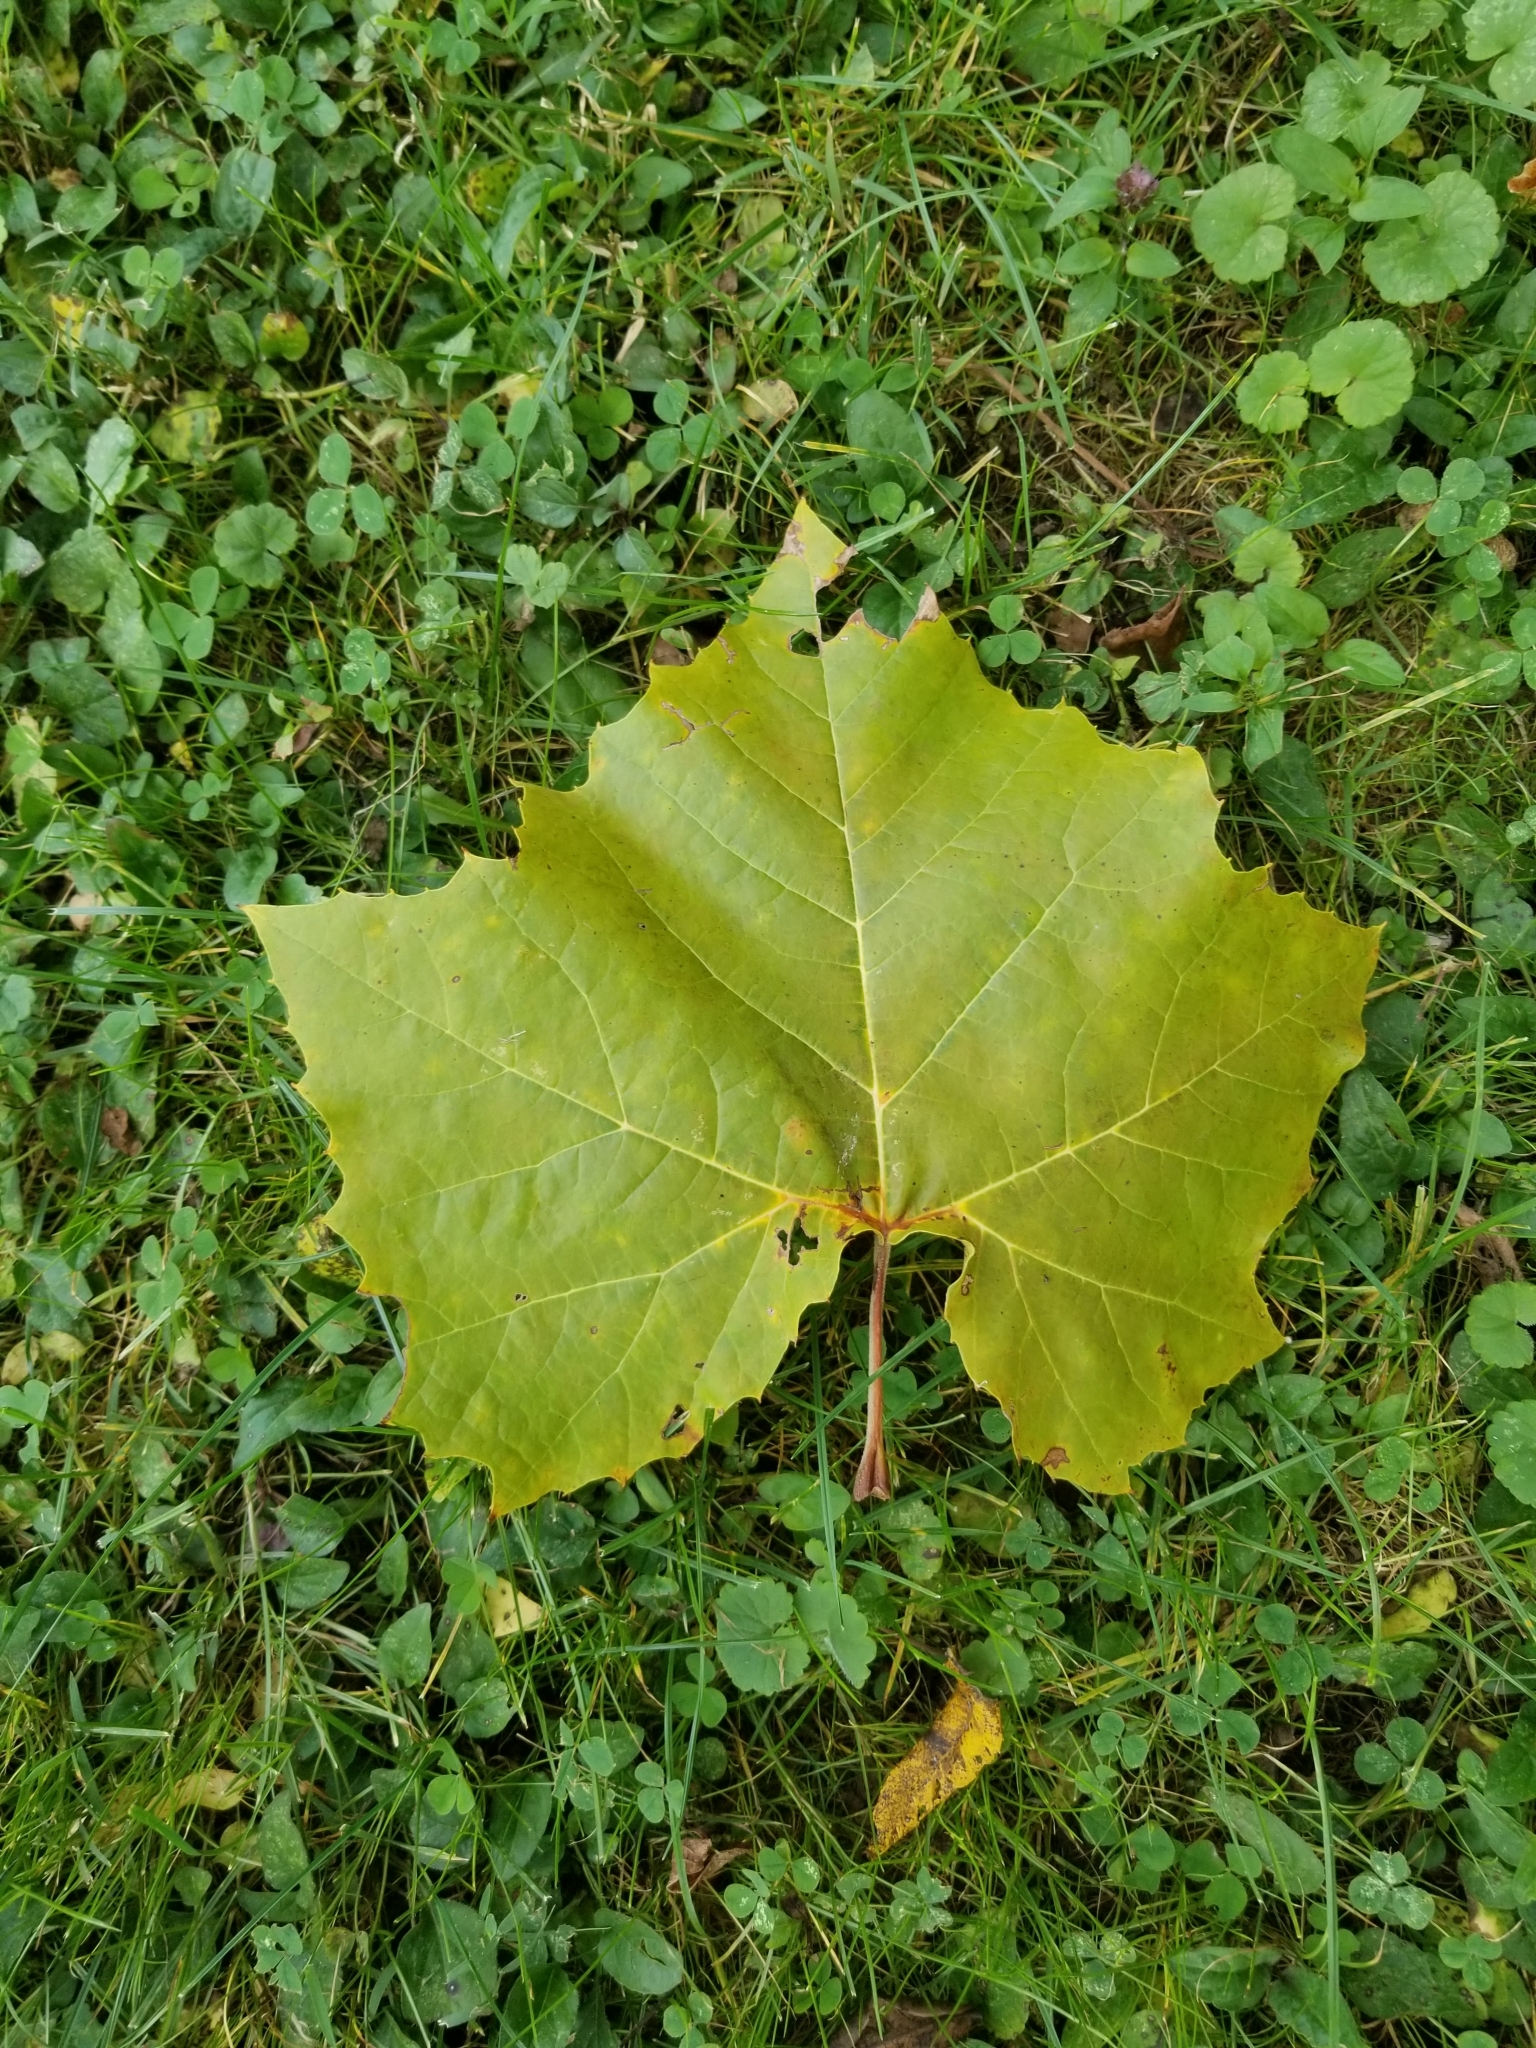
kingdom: Plantae
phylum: Tracheophyta
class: Magnoliopsida
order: Proteales
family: Platanaceae
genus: Platanus
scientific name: Platanus occidentalis
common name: American sycamore
